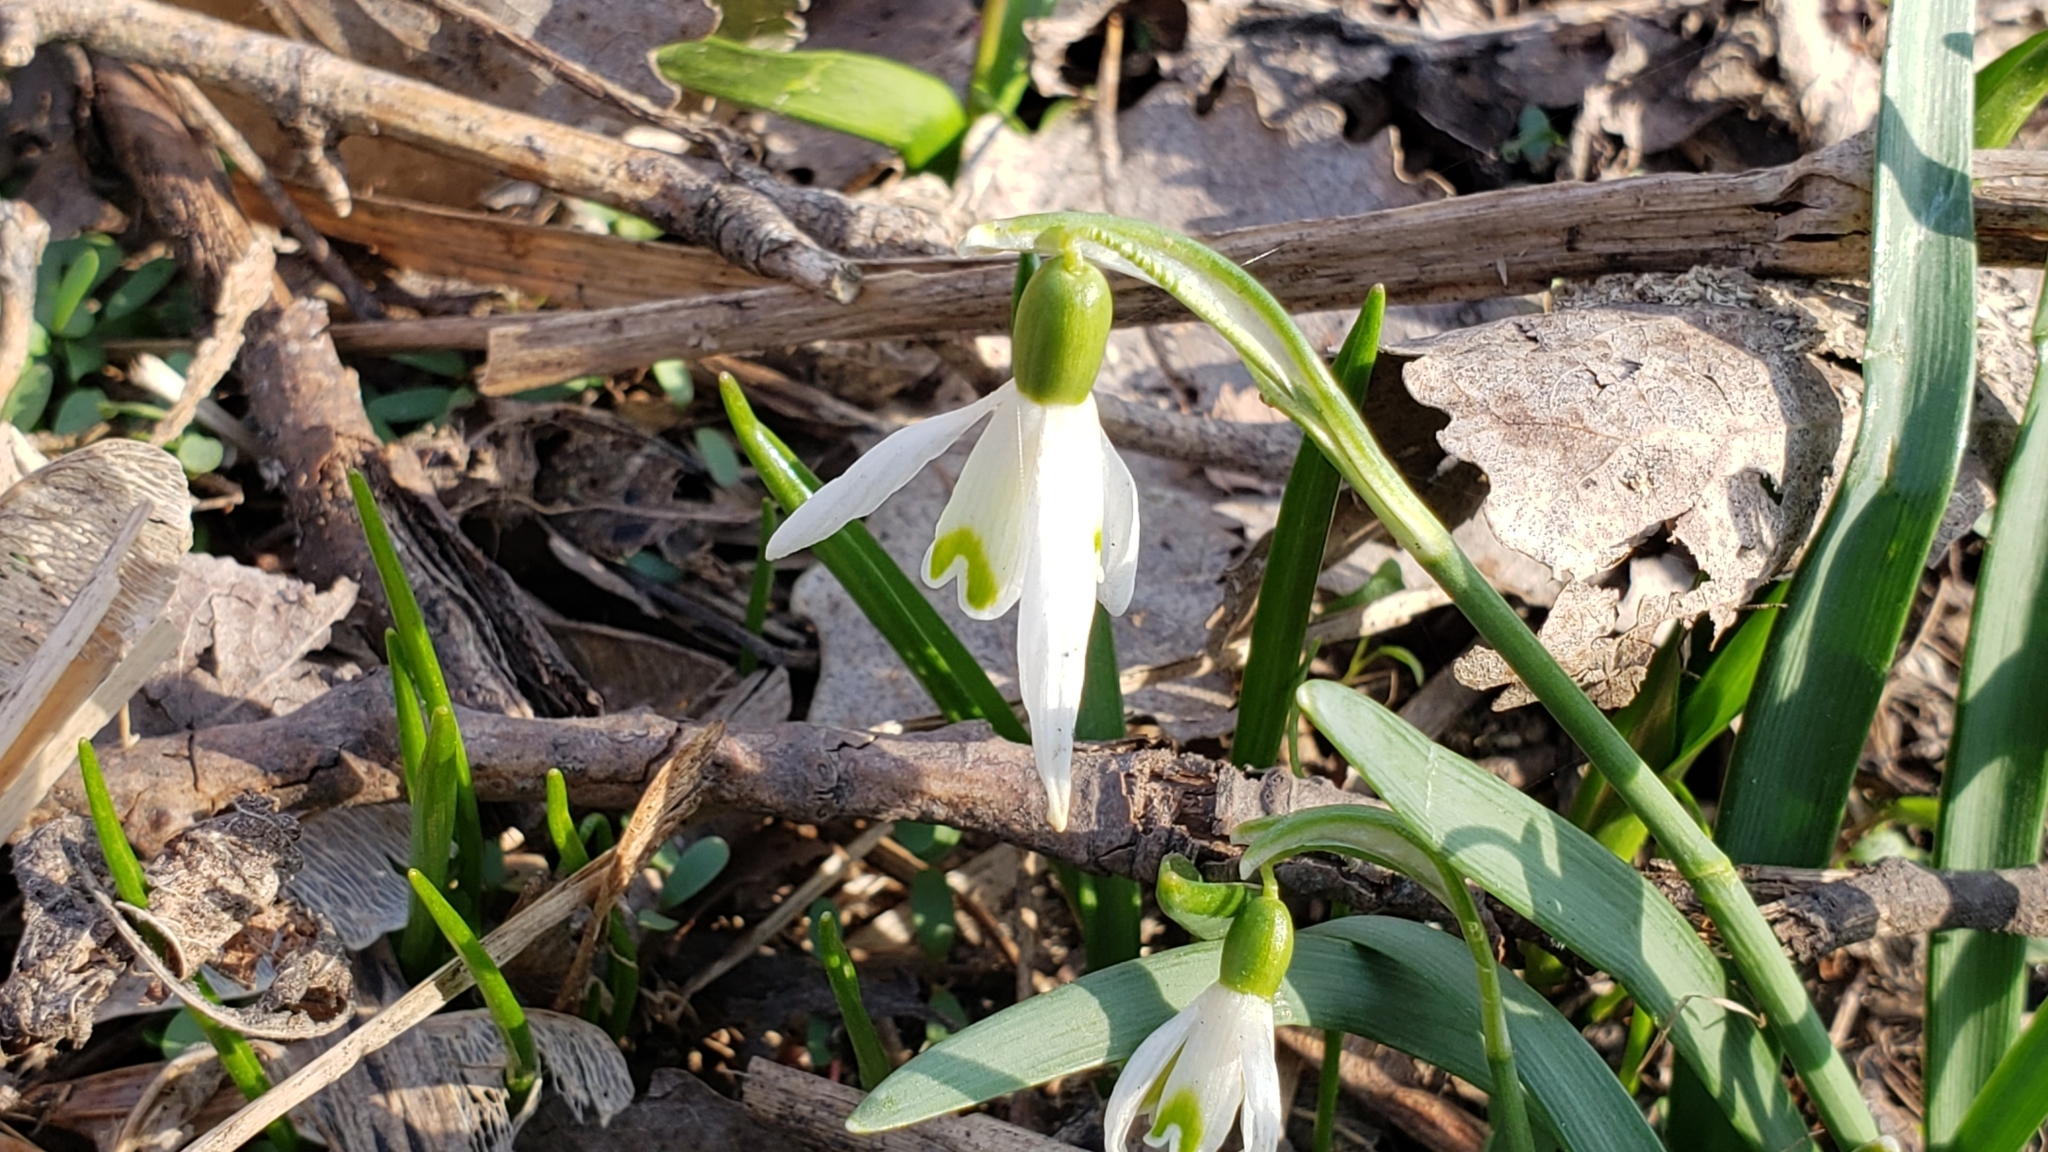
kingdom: Plantae
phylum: Tracheophyta
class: Liliopsida
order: Asparagales
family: Amaryllidaceae
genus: Galanthus
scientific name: Galanthus nivalis
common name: Snowdrop
